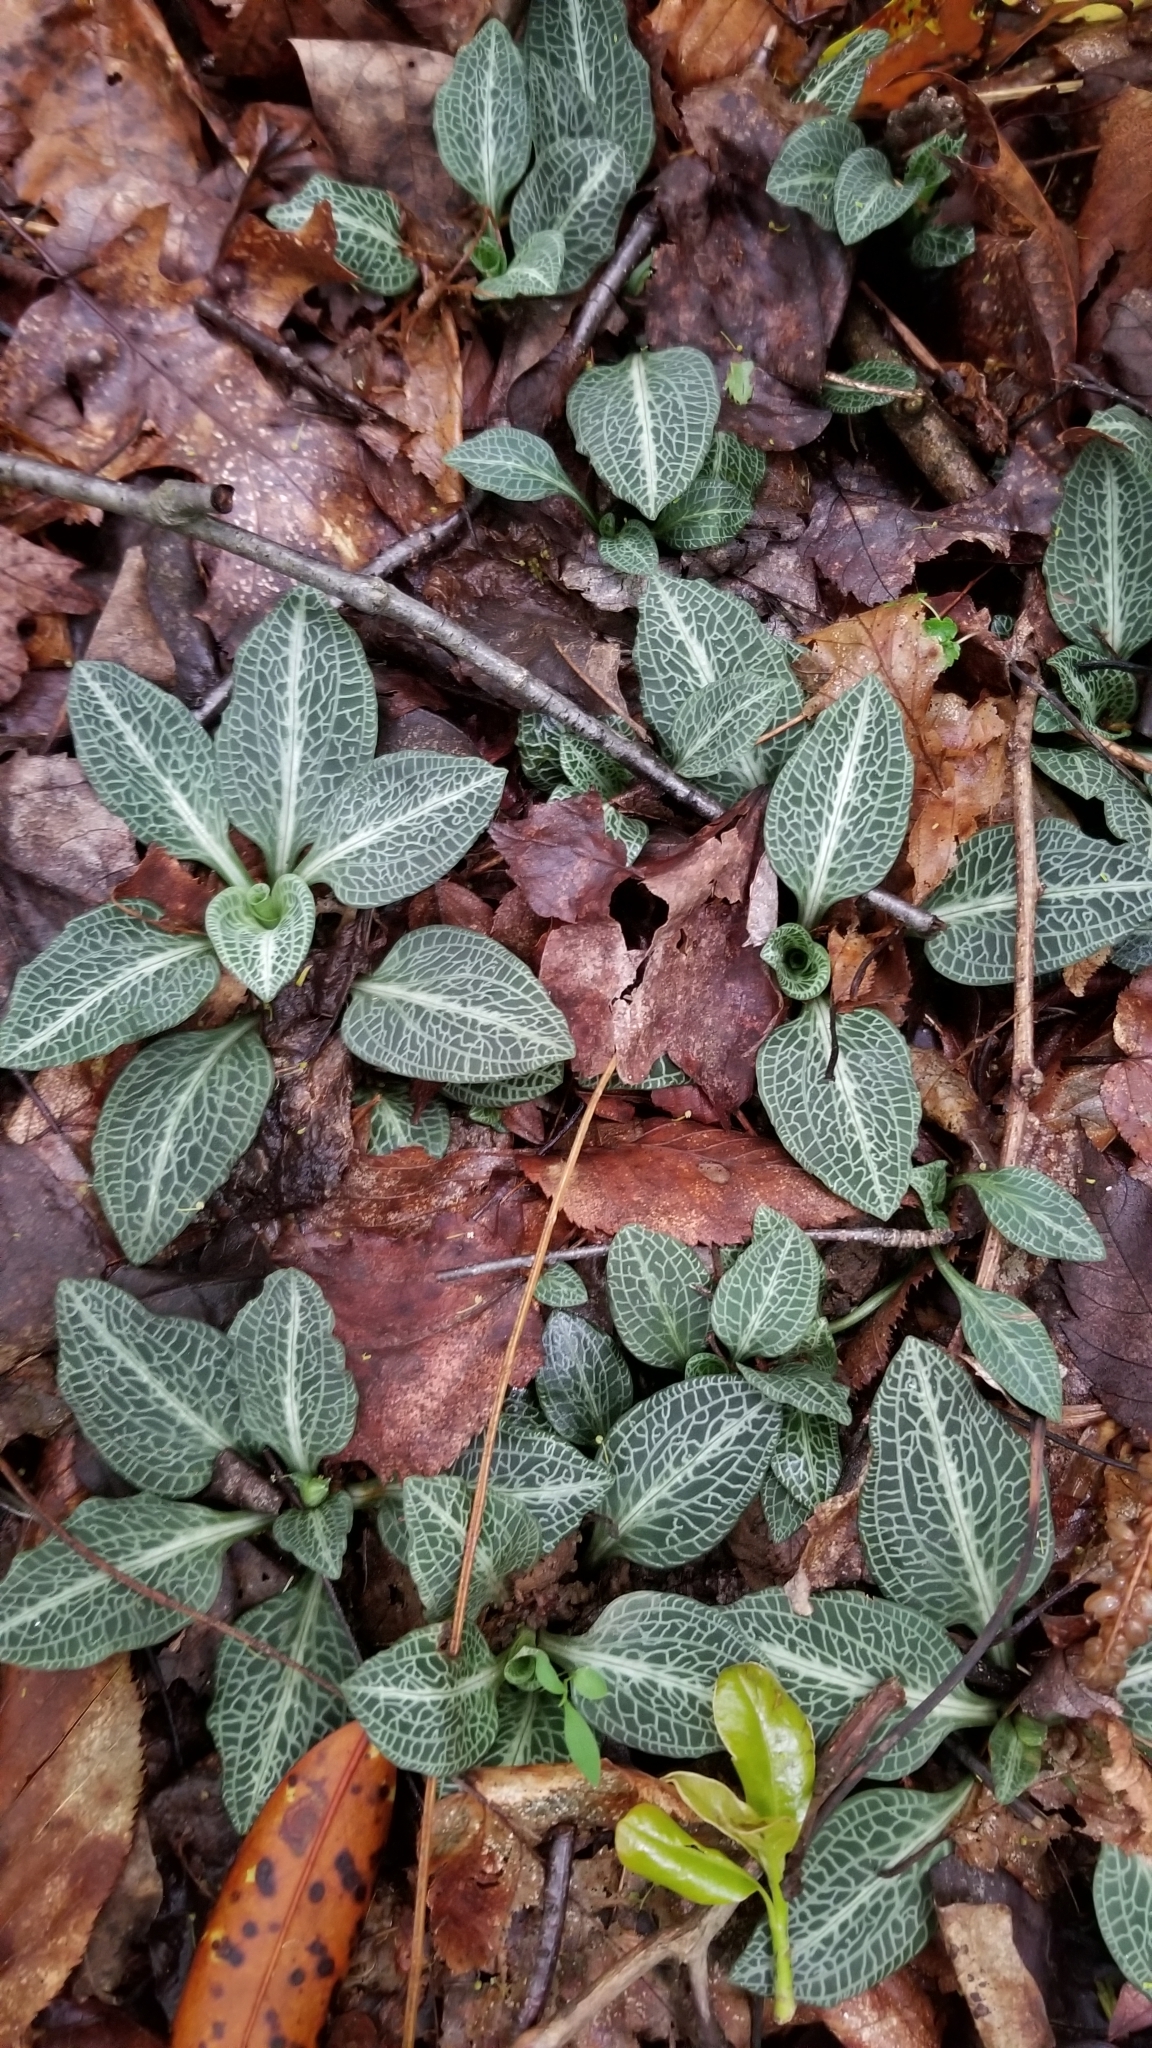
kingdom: Plantae
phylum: Tracheophyta
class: Liliopsida
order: Asparagales
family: Orchidaceae
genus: Goodyera
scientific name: Goodyera pubescens
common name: Downy rattlesnake-plantain
